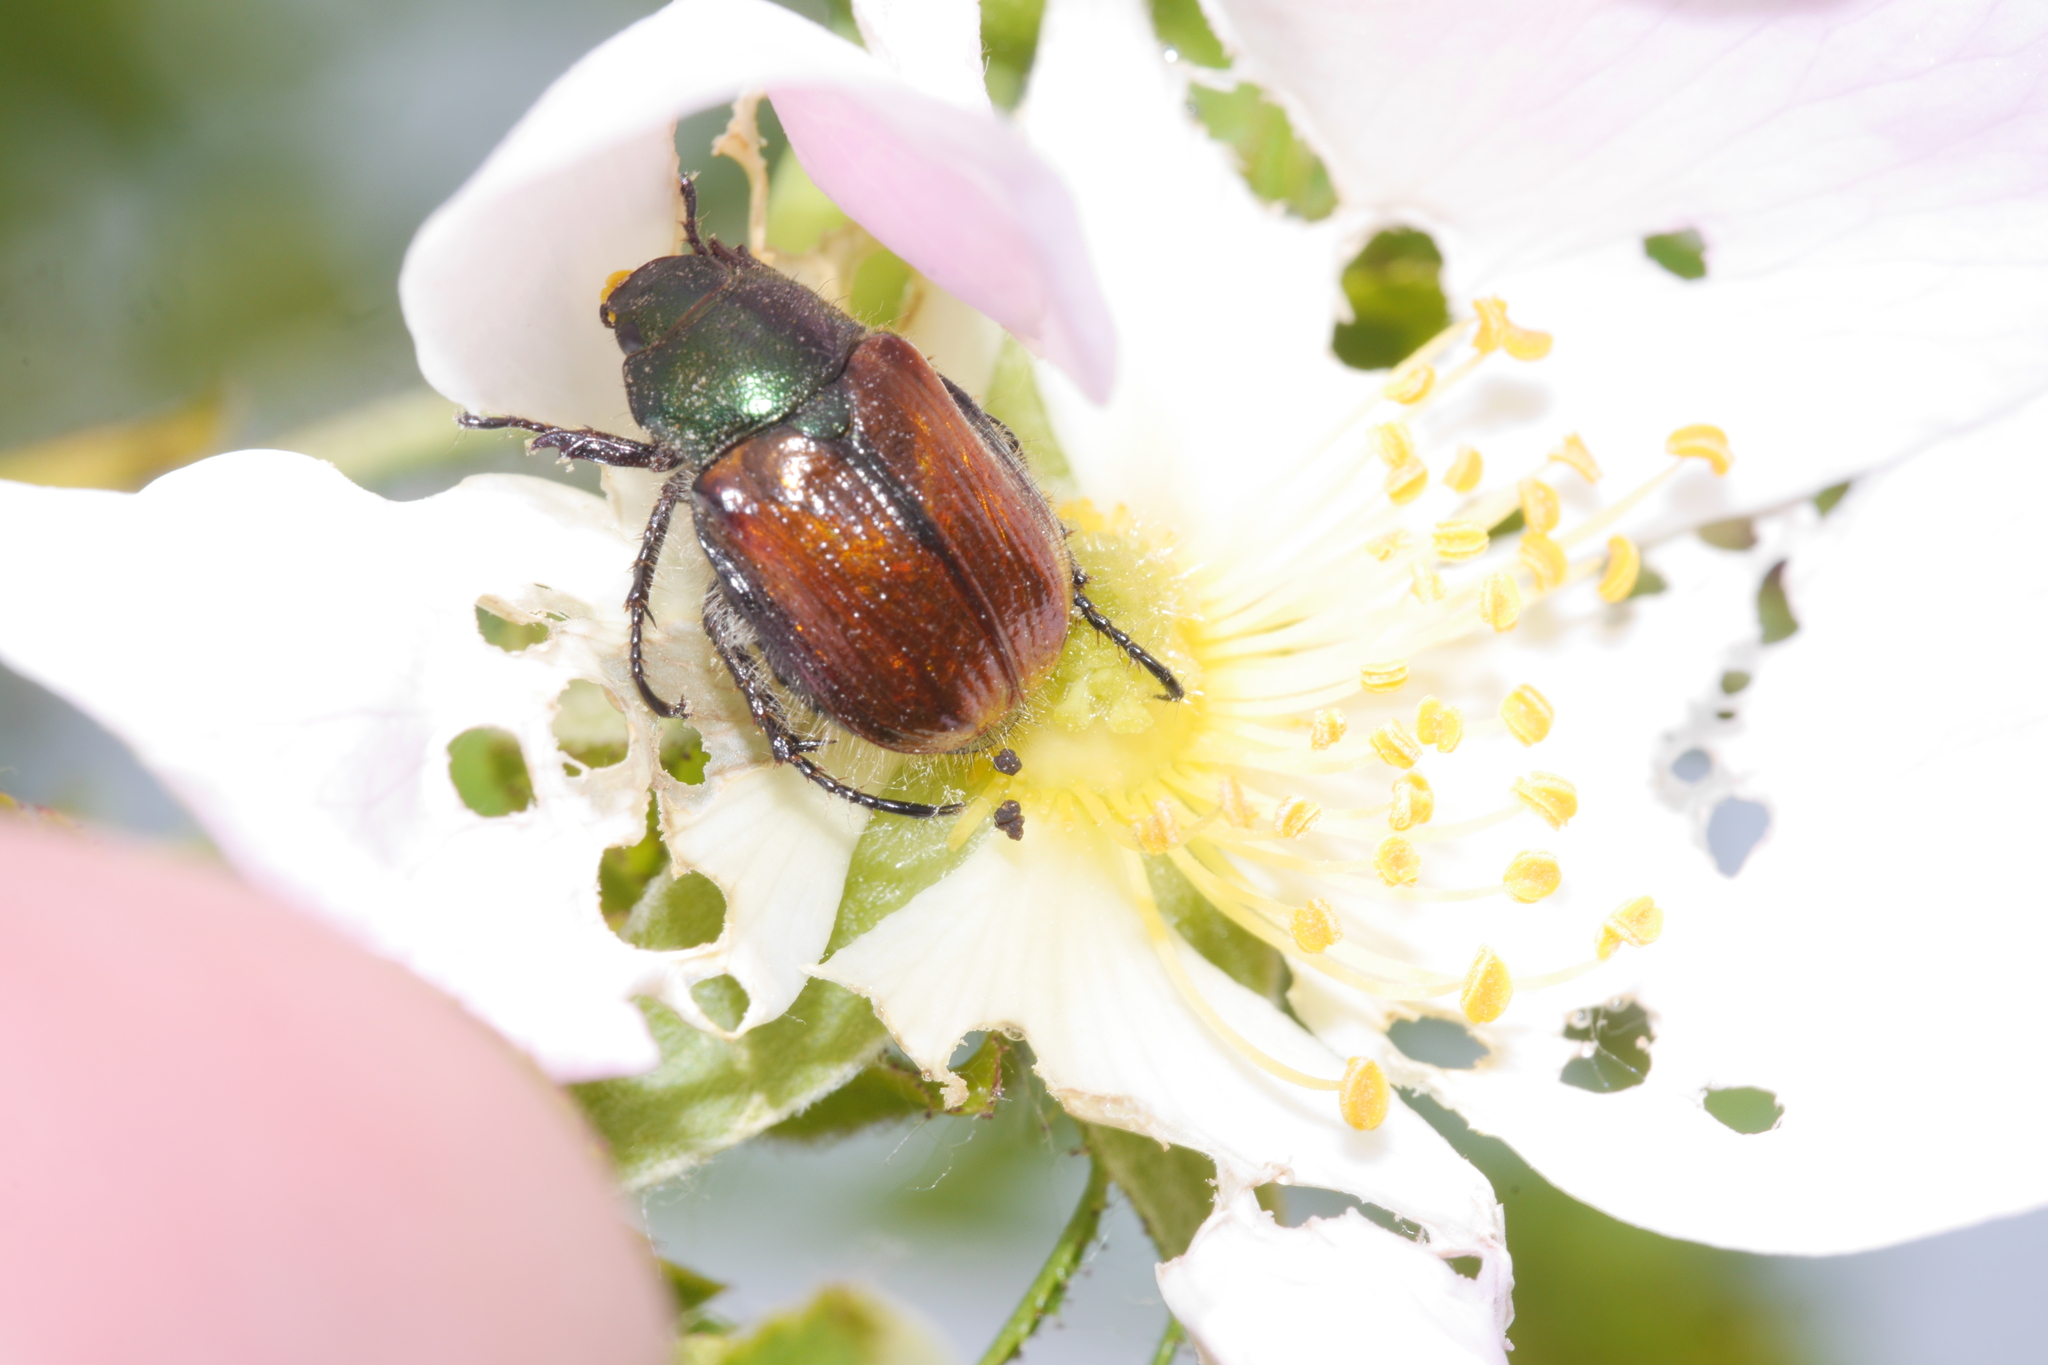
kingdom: Animalia
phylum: Arthropoda
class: Insecta
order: Coleoptera
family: Scarabaeidae
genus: Phyllopertha
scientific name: Phyllopertha horticola
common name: Garden chafer
